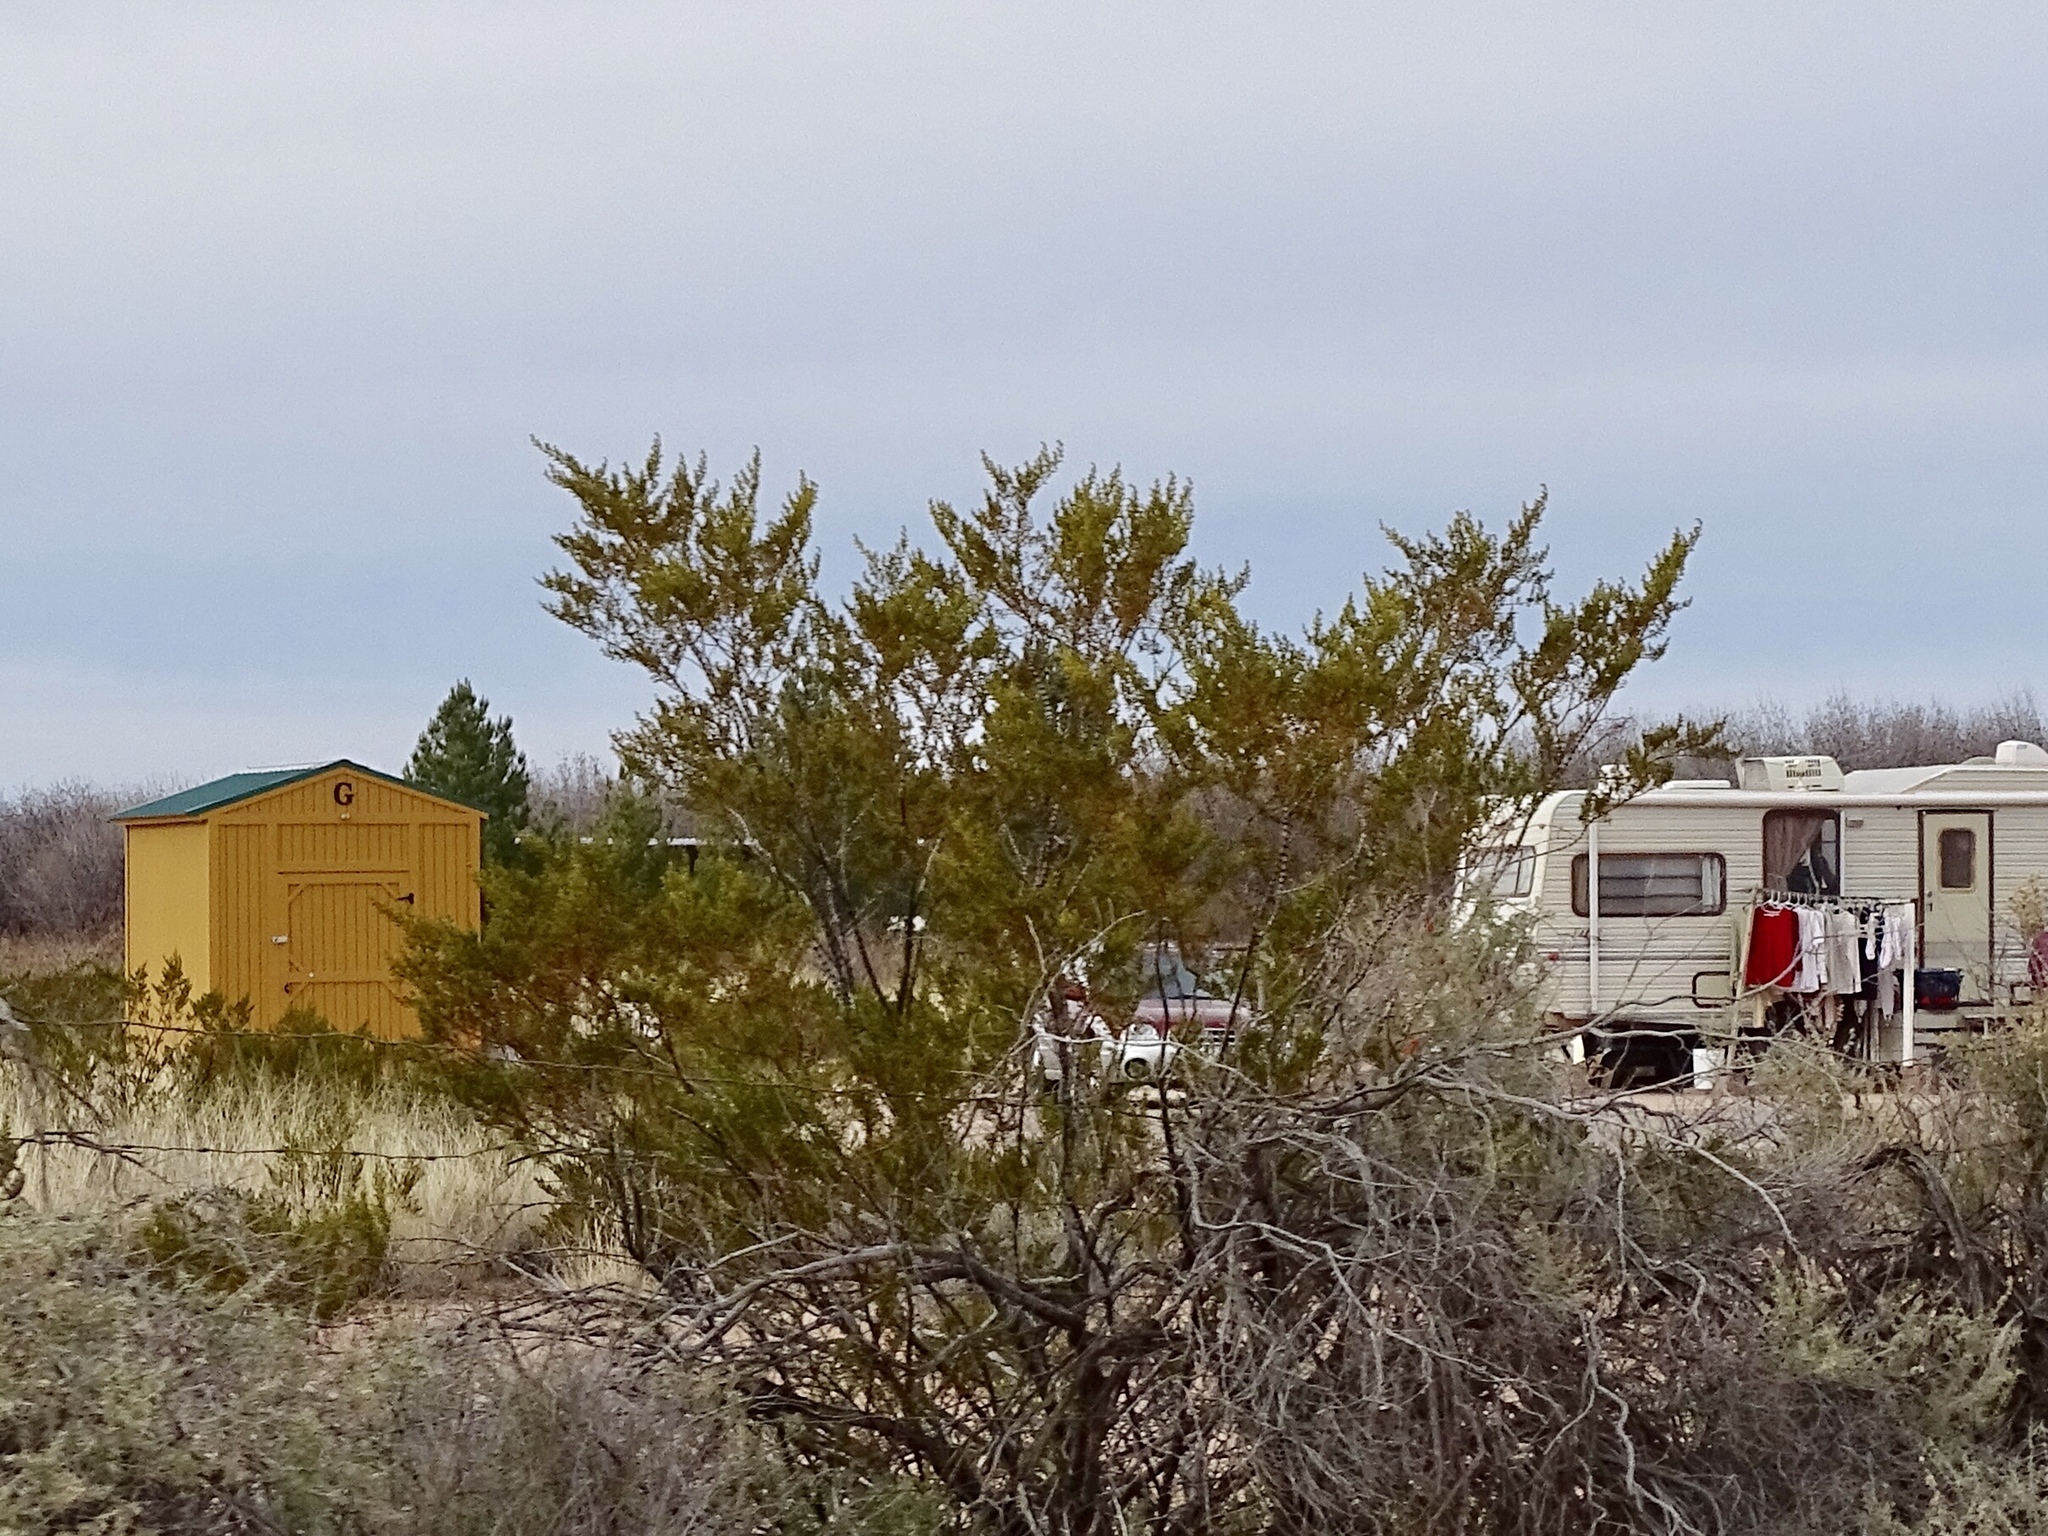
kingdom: Plantae
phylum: Tracheophyta
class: Magnoliopsida
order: Zygophyllales
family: Zygophyllaceae
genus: Larrea
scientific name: Larrea tridentata
